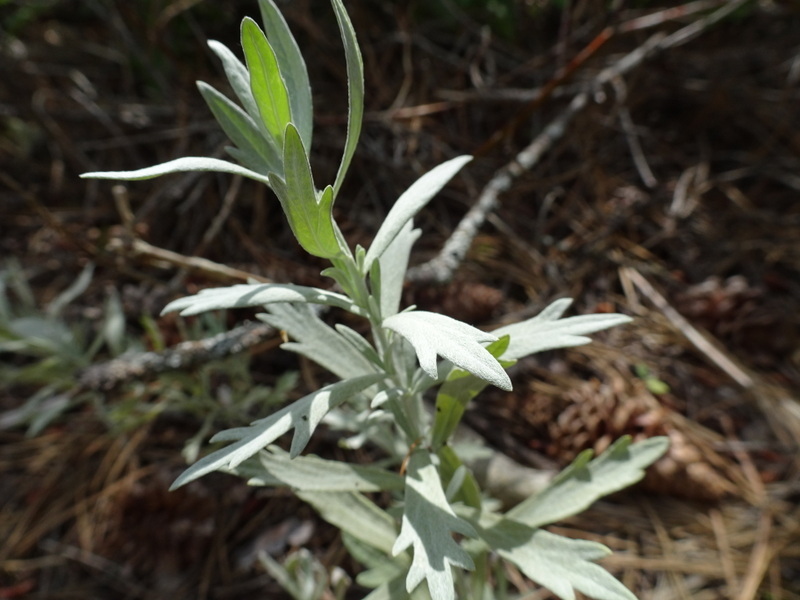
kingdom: Plantae
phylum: Tracheophyta
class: Magnoliopsida
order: Asterales
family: Asteraceae
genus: Artemisia
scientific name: Artemisia ludoviciana
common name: Western mugwort
